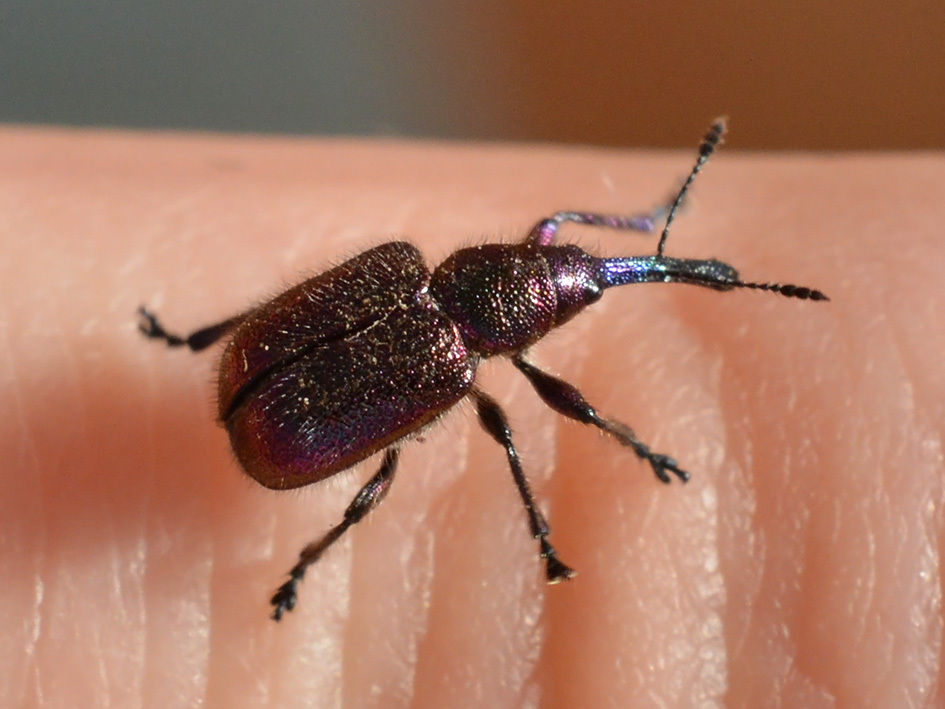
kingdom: Animalia
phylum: Arthropoda
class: Insecta
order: Coleoptera
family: Attelabidae
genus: Rhynchites
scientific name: Rhynchites bacchus
